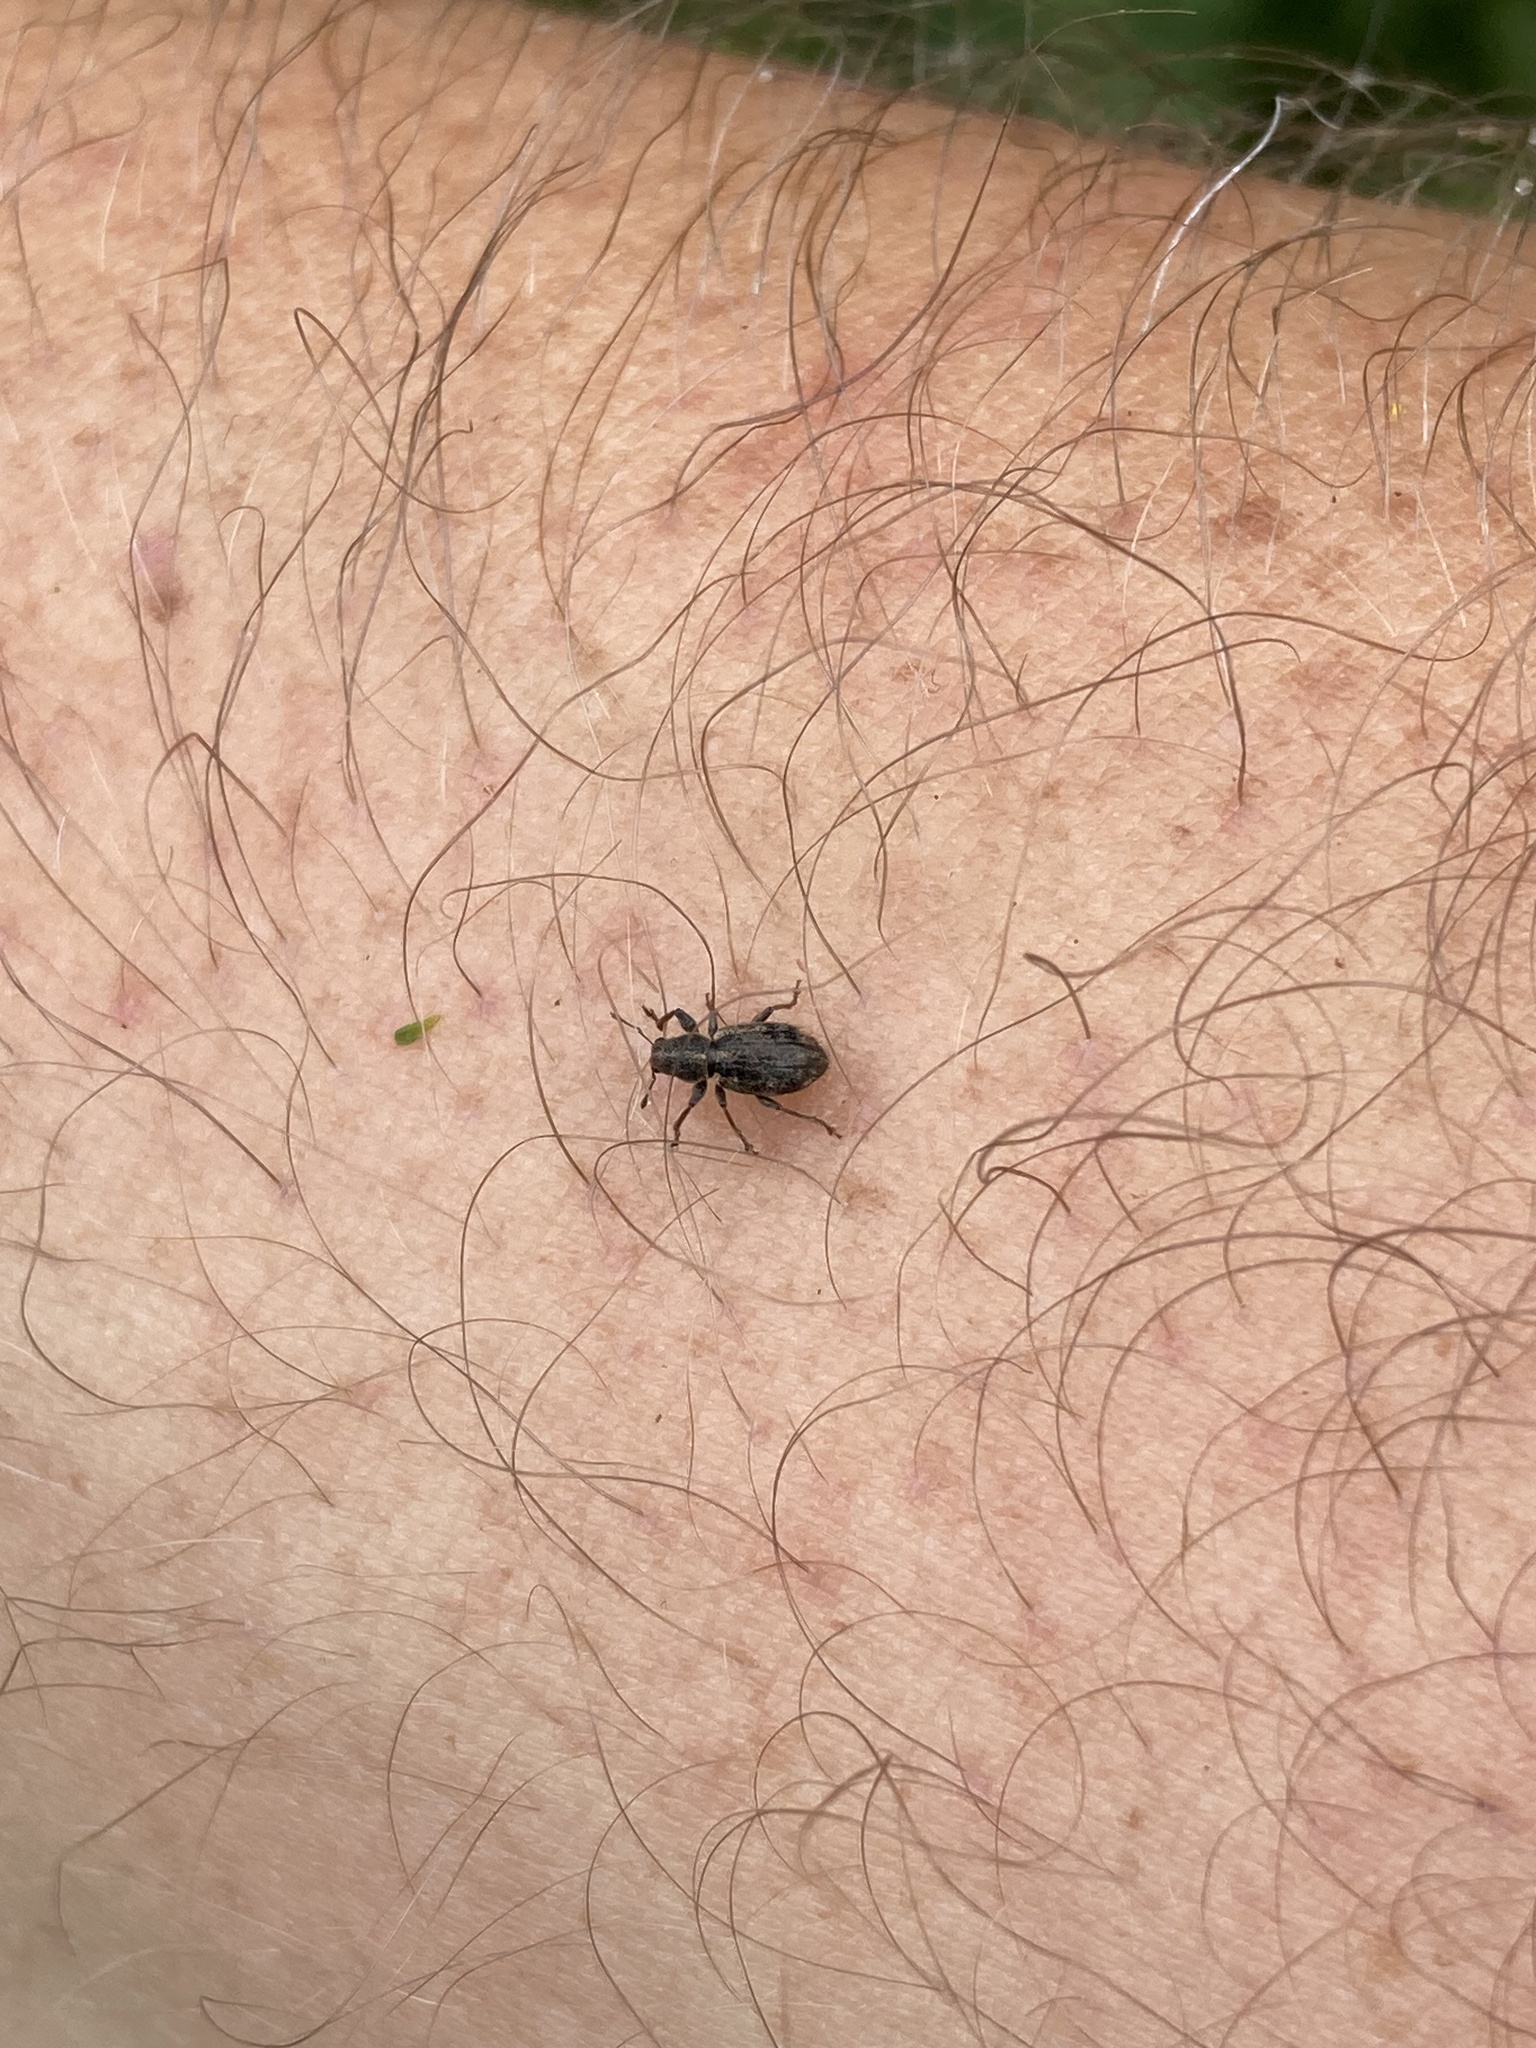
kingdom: Animalia
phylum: Arthropoda
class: Insecta
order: Coleoptera
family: Curculionidae
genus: Andrion
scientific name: Andrion regensteinense
